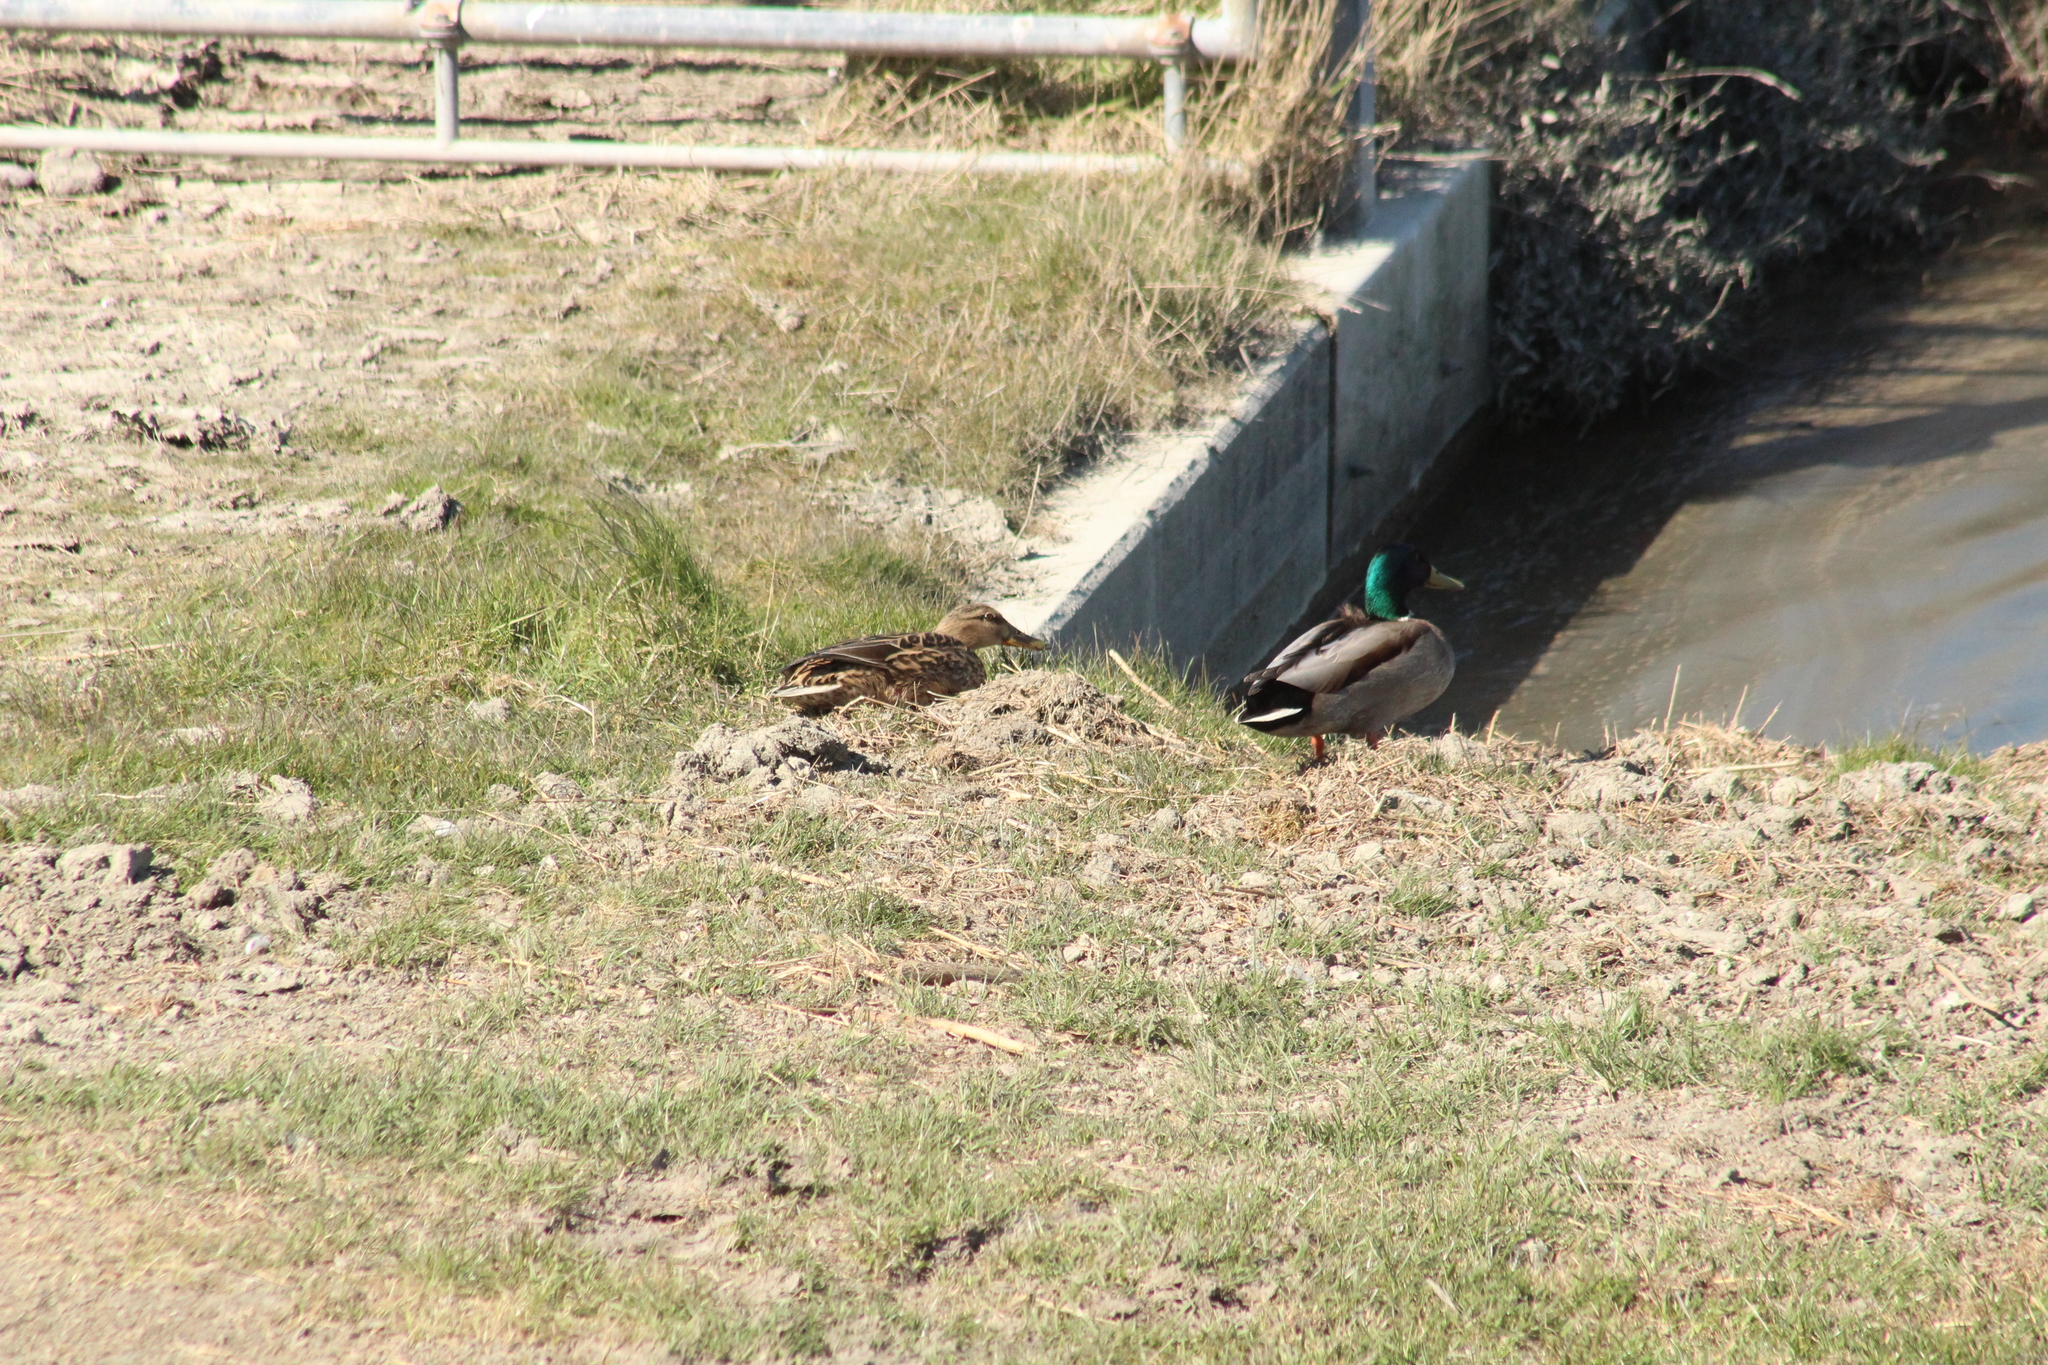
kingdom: Animalia
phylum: Chordata
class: Aves
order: Anseriformes
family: Anatidae
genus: Anas
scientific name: Anas platyrhynchos
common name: Mallard
